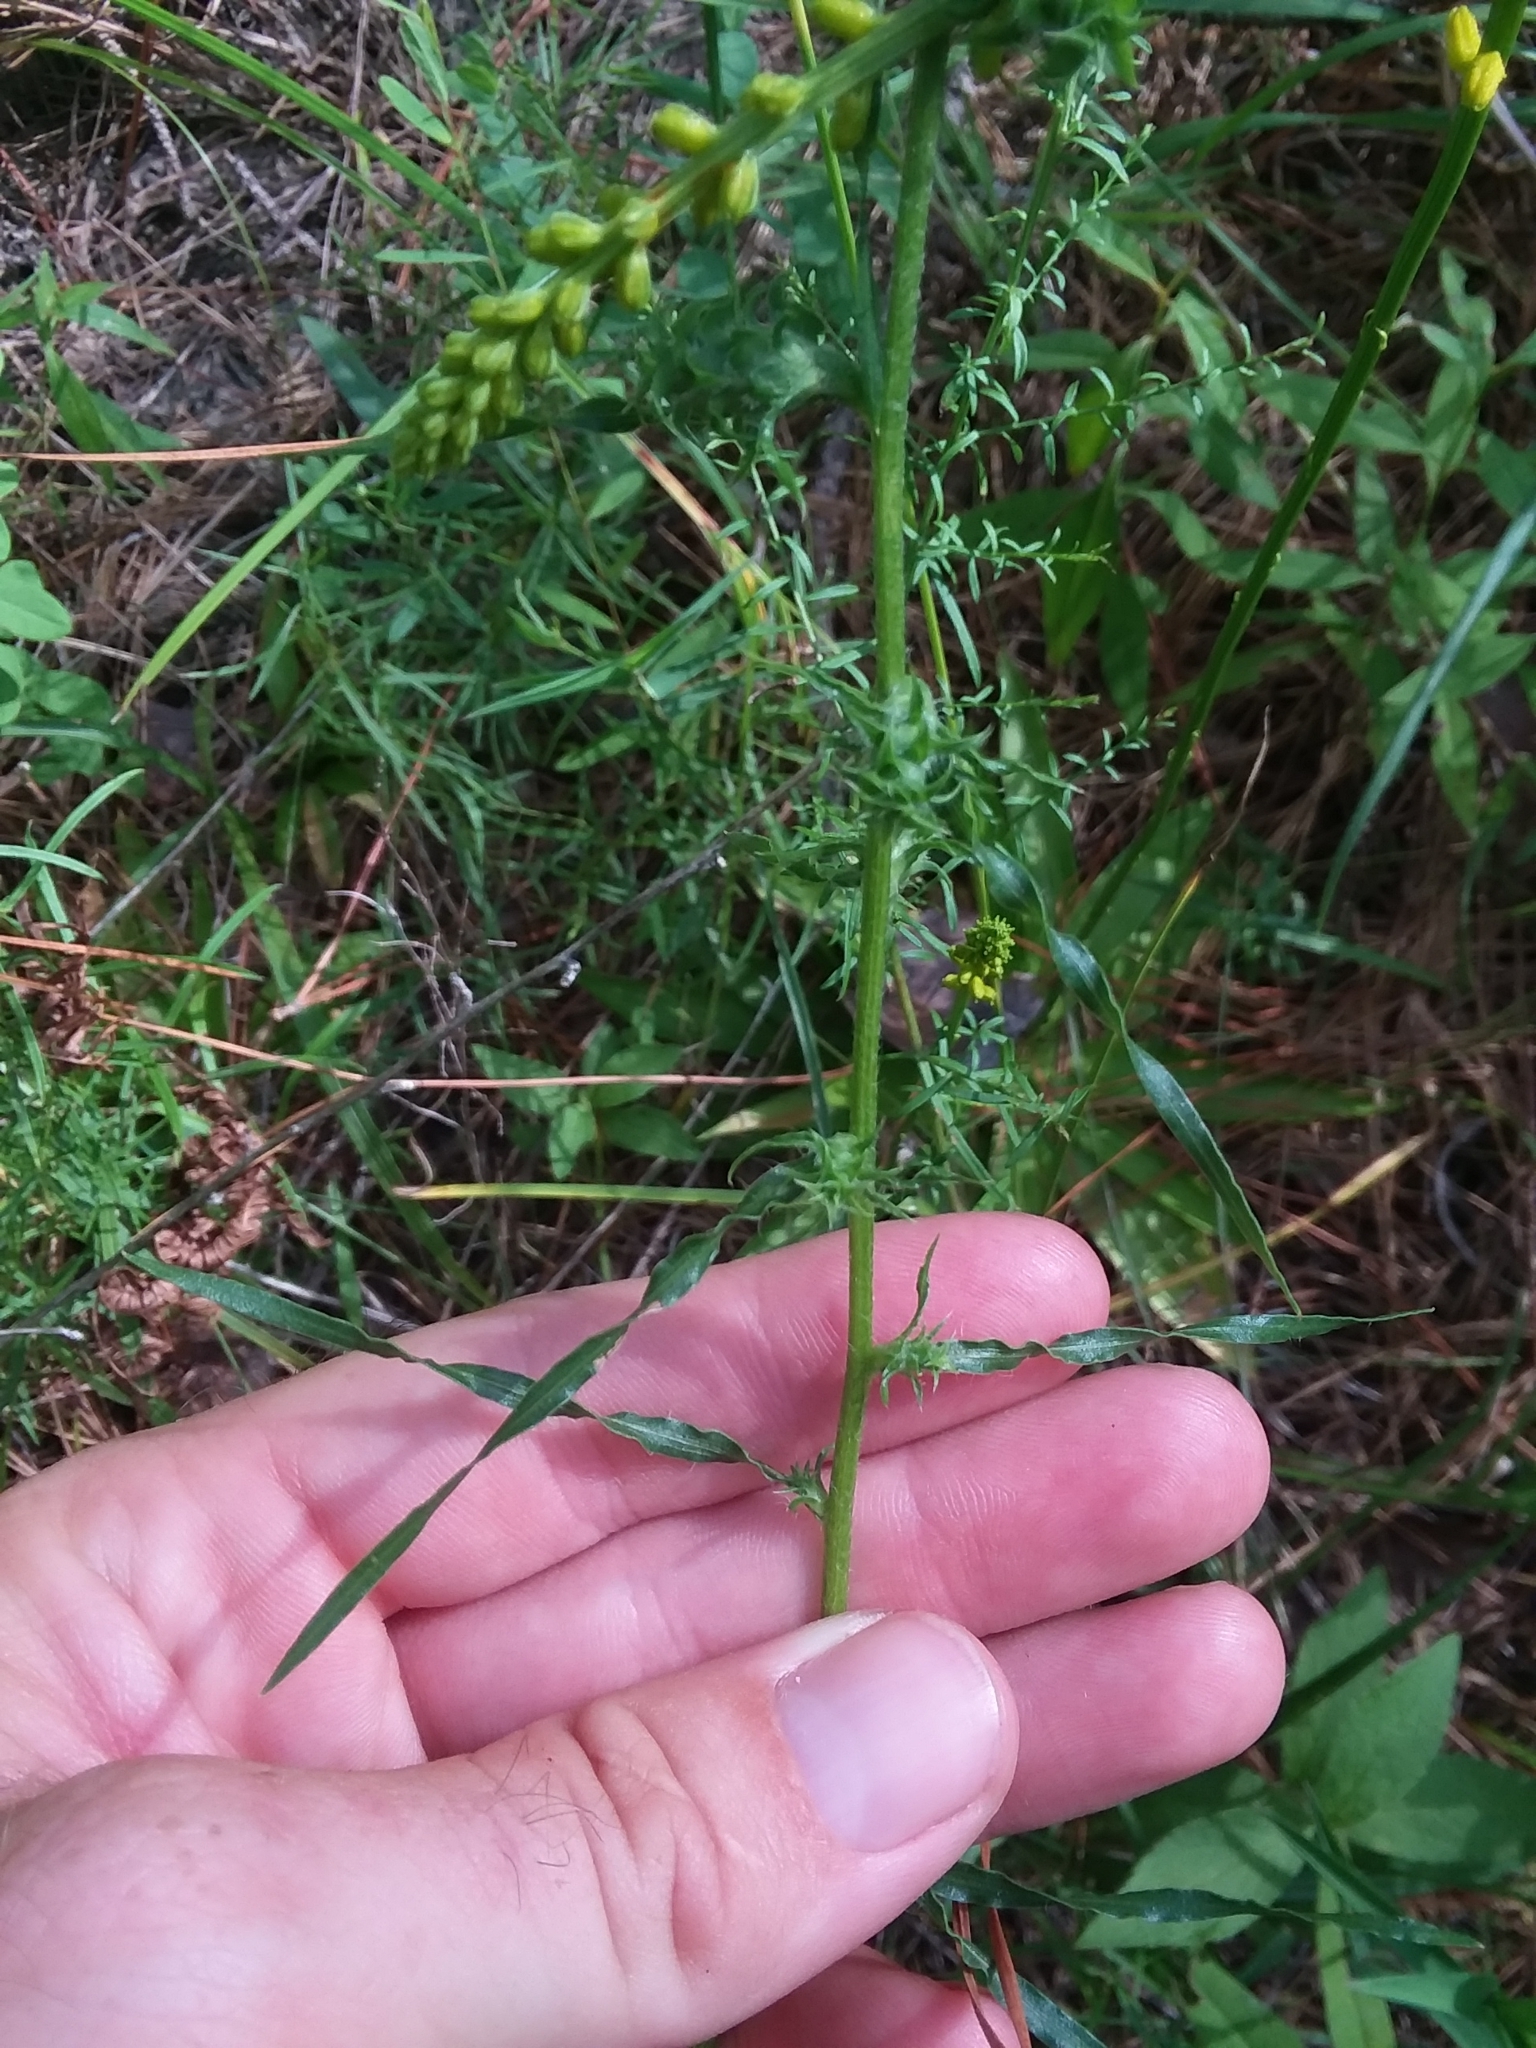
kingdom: Plantae
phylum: Tracheophyta
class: Magnoliopsida
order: Asterales
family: Asteraceae
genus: Liatris
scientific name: Liatris hirsuta
